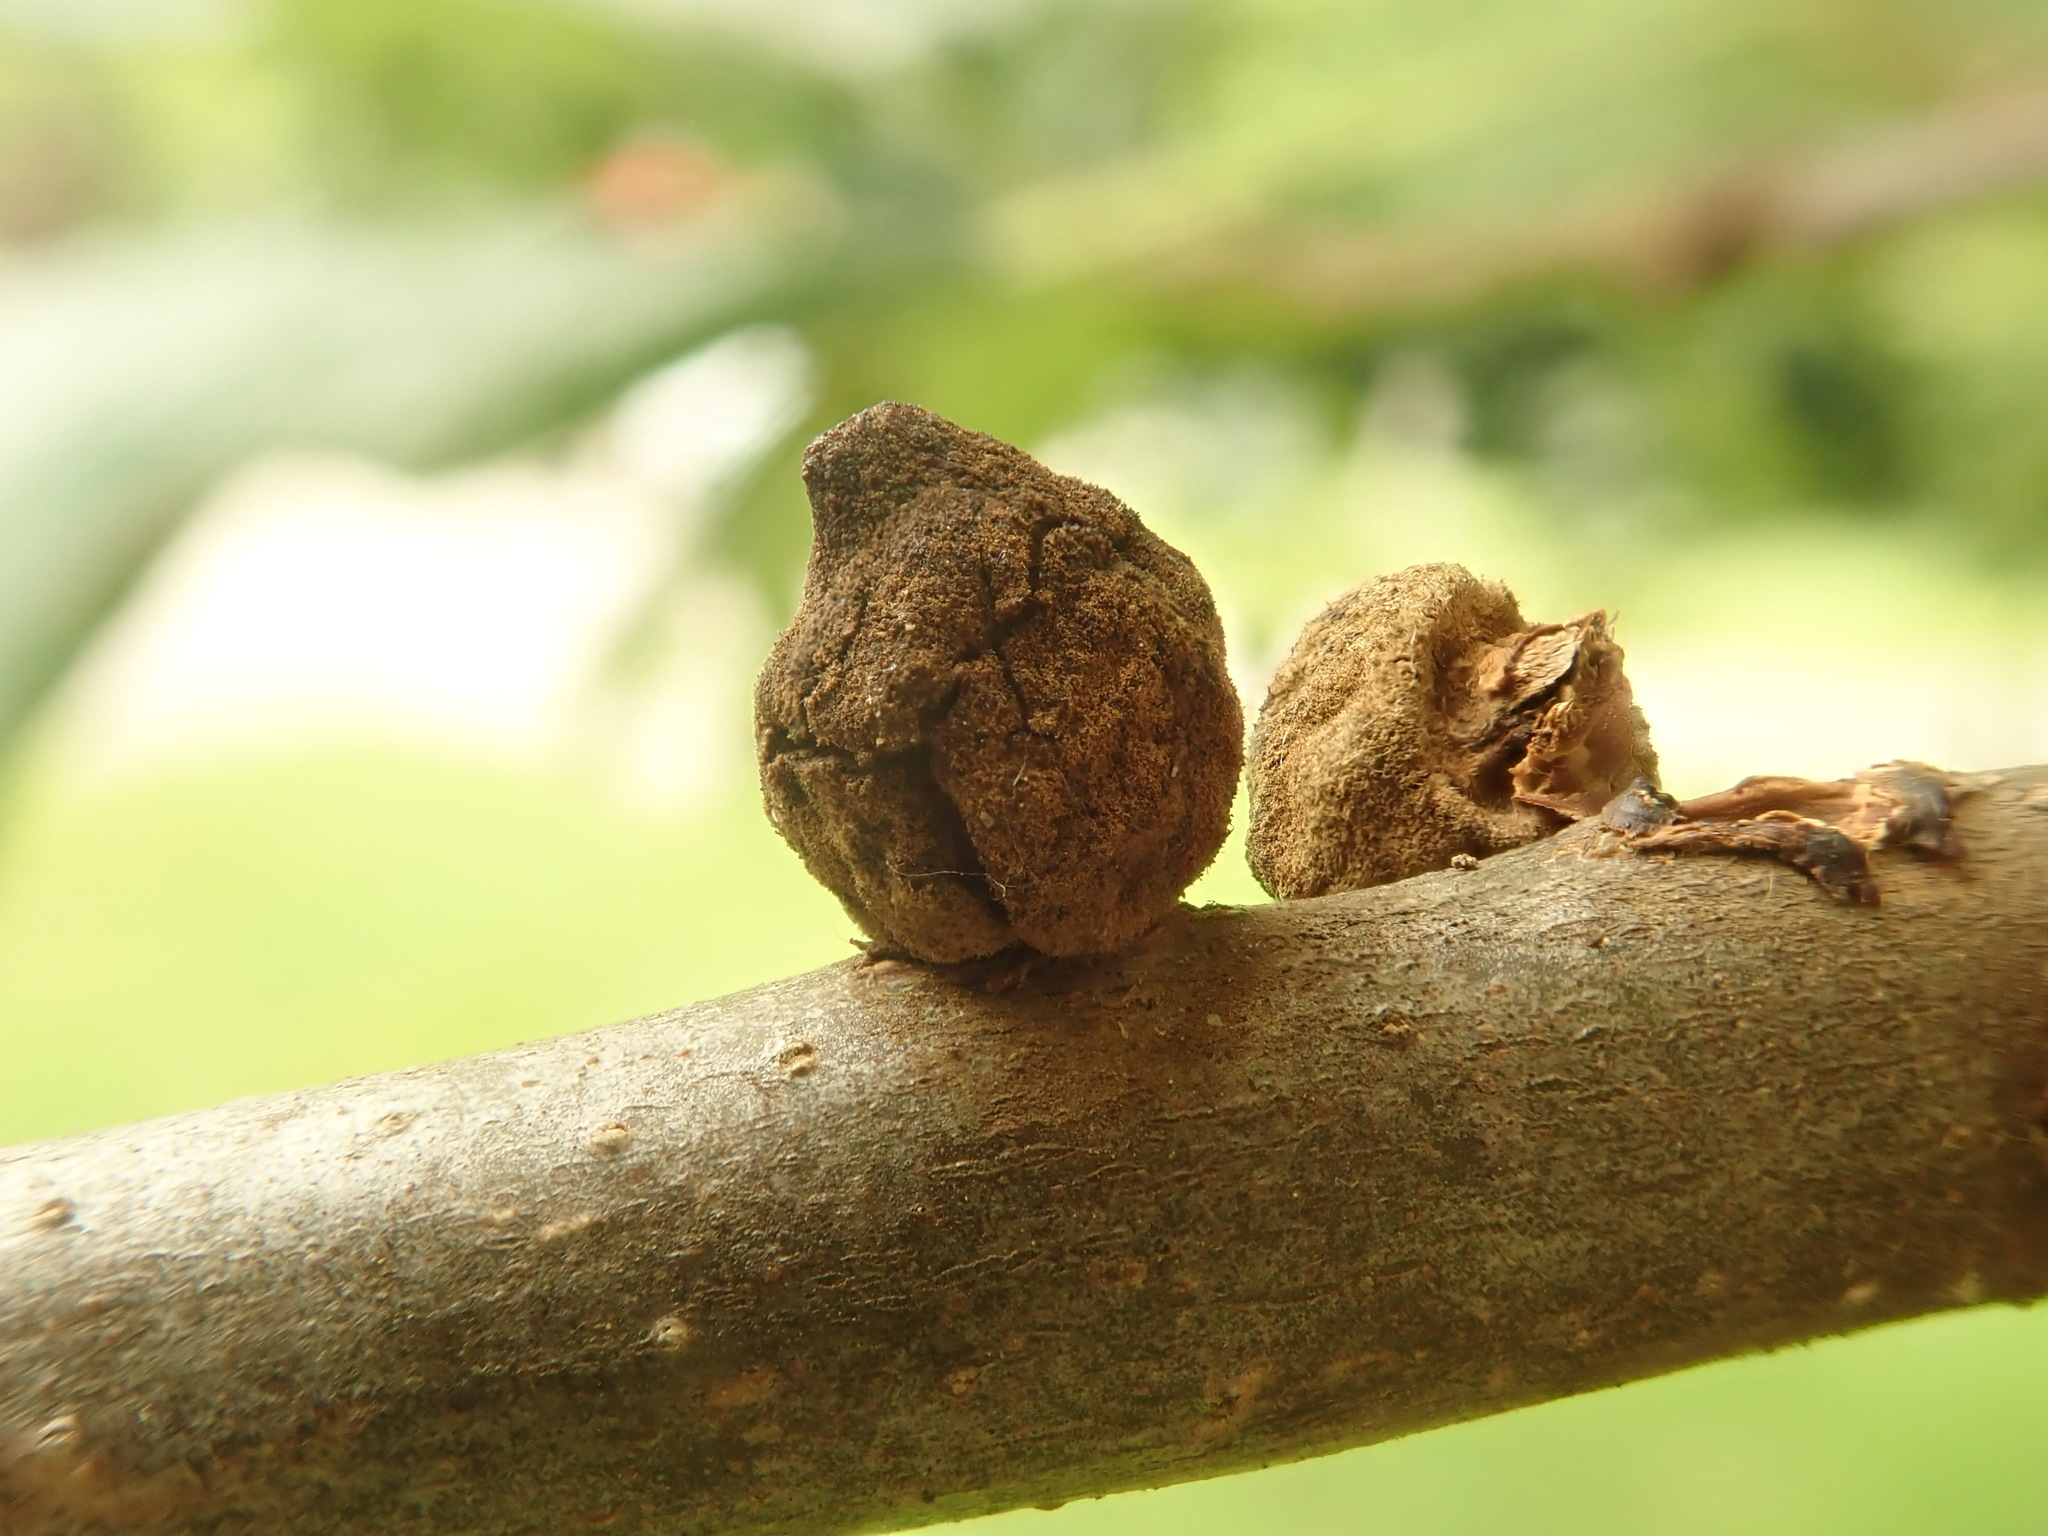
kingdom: Animalia
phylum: Arthropoda
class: Insecta
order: Hymenoptera
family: Cynipidae
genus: Callirhytis
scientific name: Callirhytis
